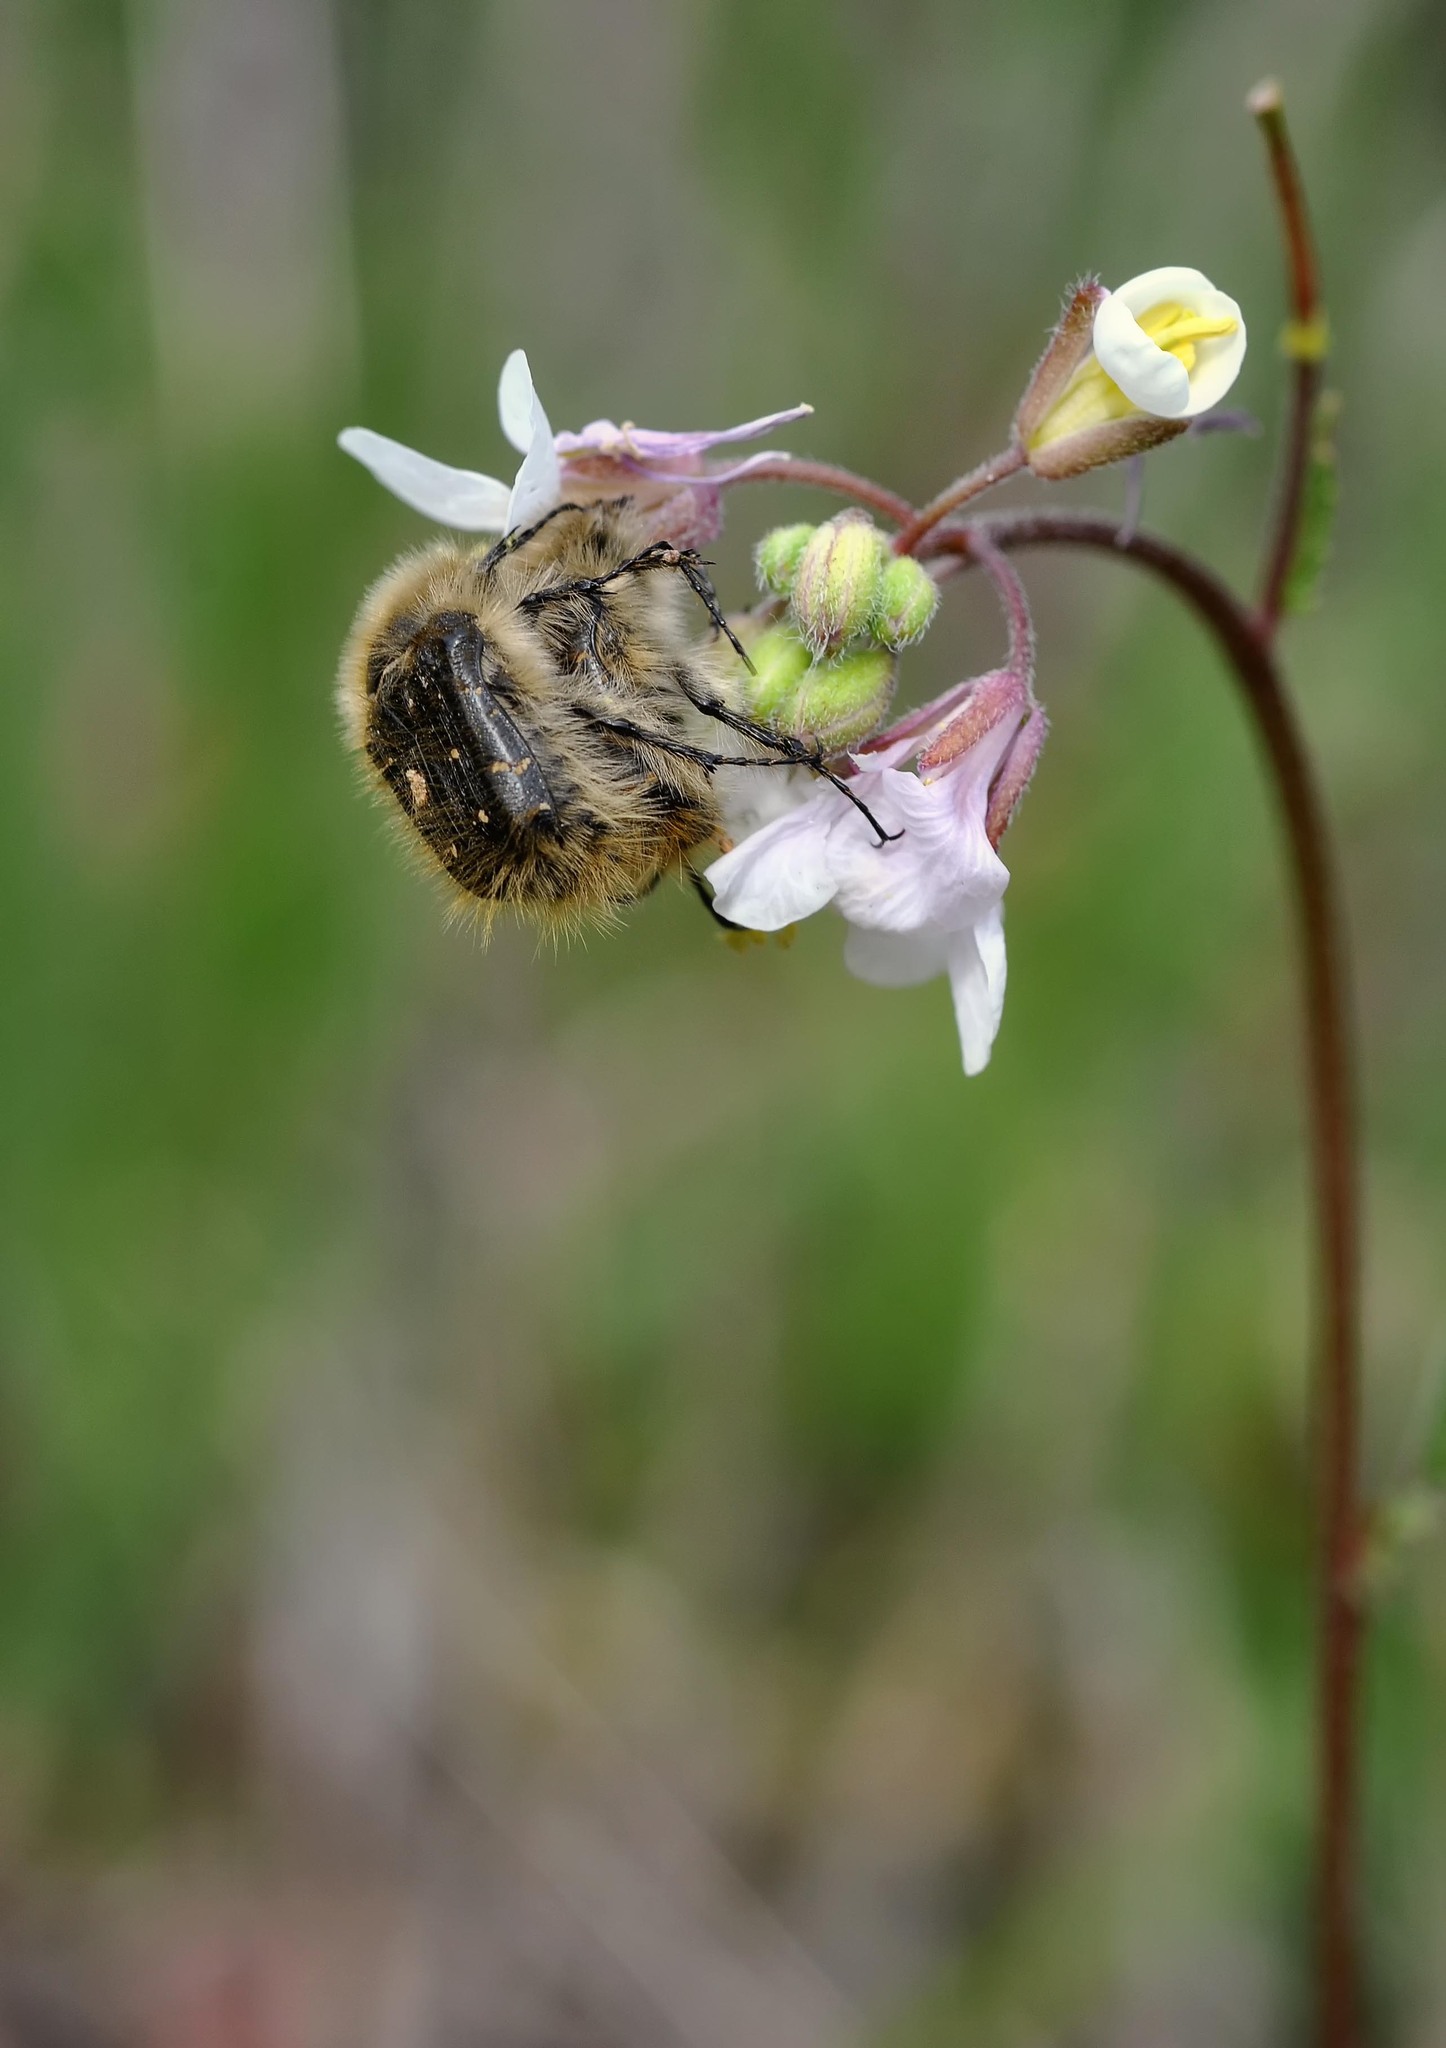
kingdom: Animalia
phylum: Arthropoda
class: Insecta
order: Coleoptera
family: Scarabaeidae
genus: Tropinota
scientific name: Tropinota squalida
